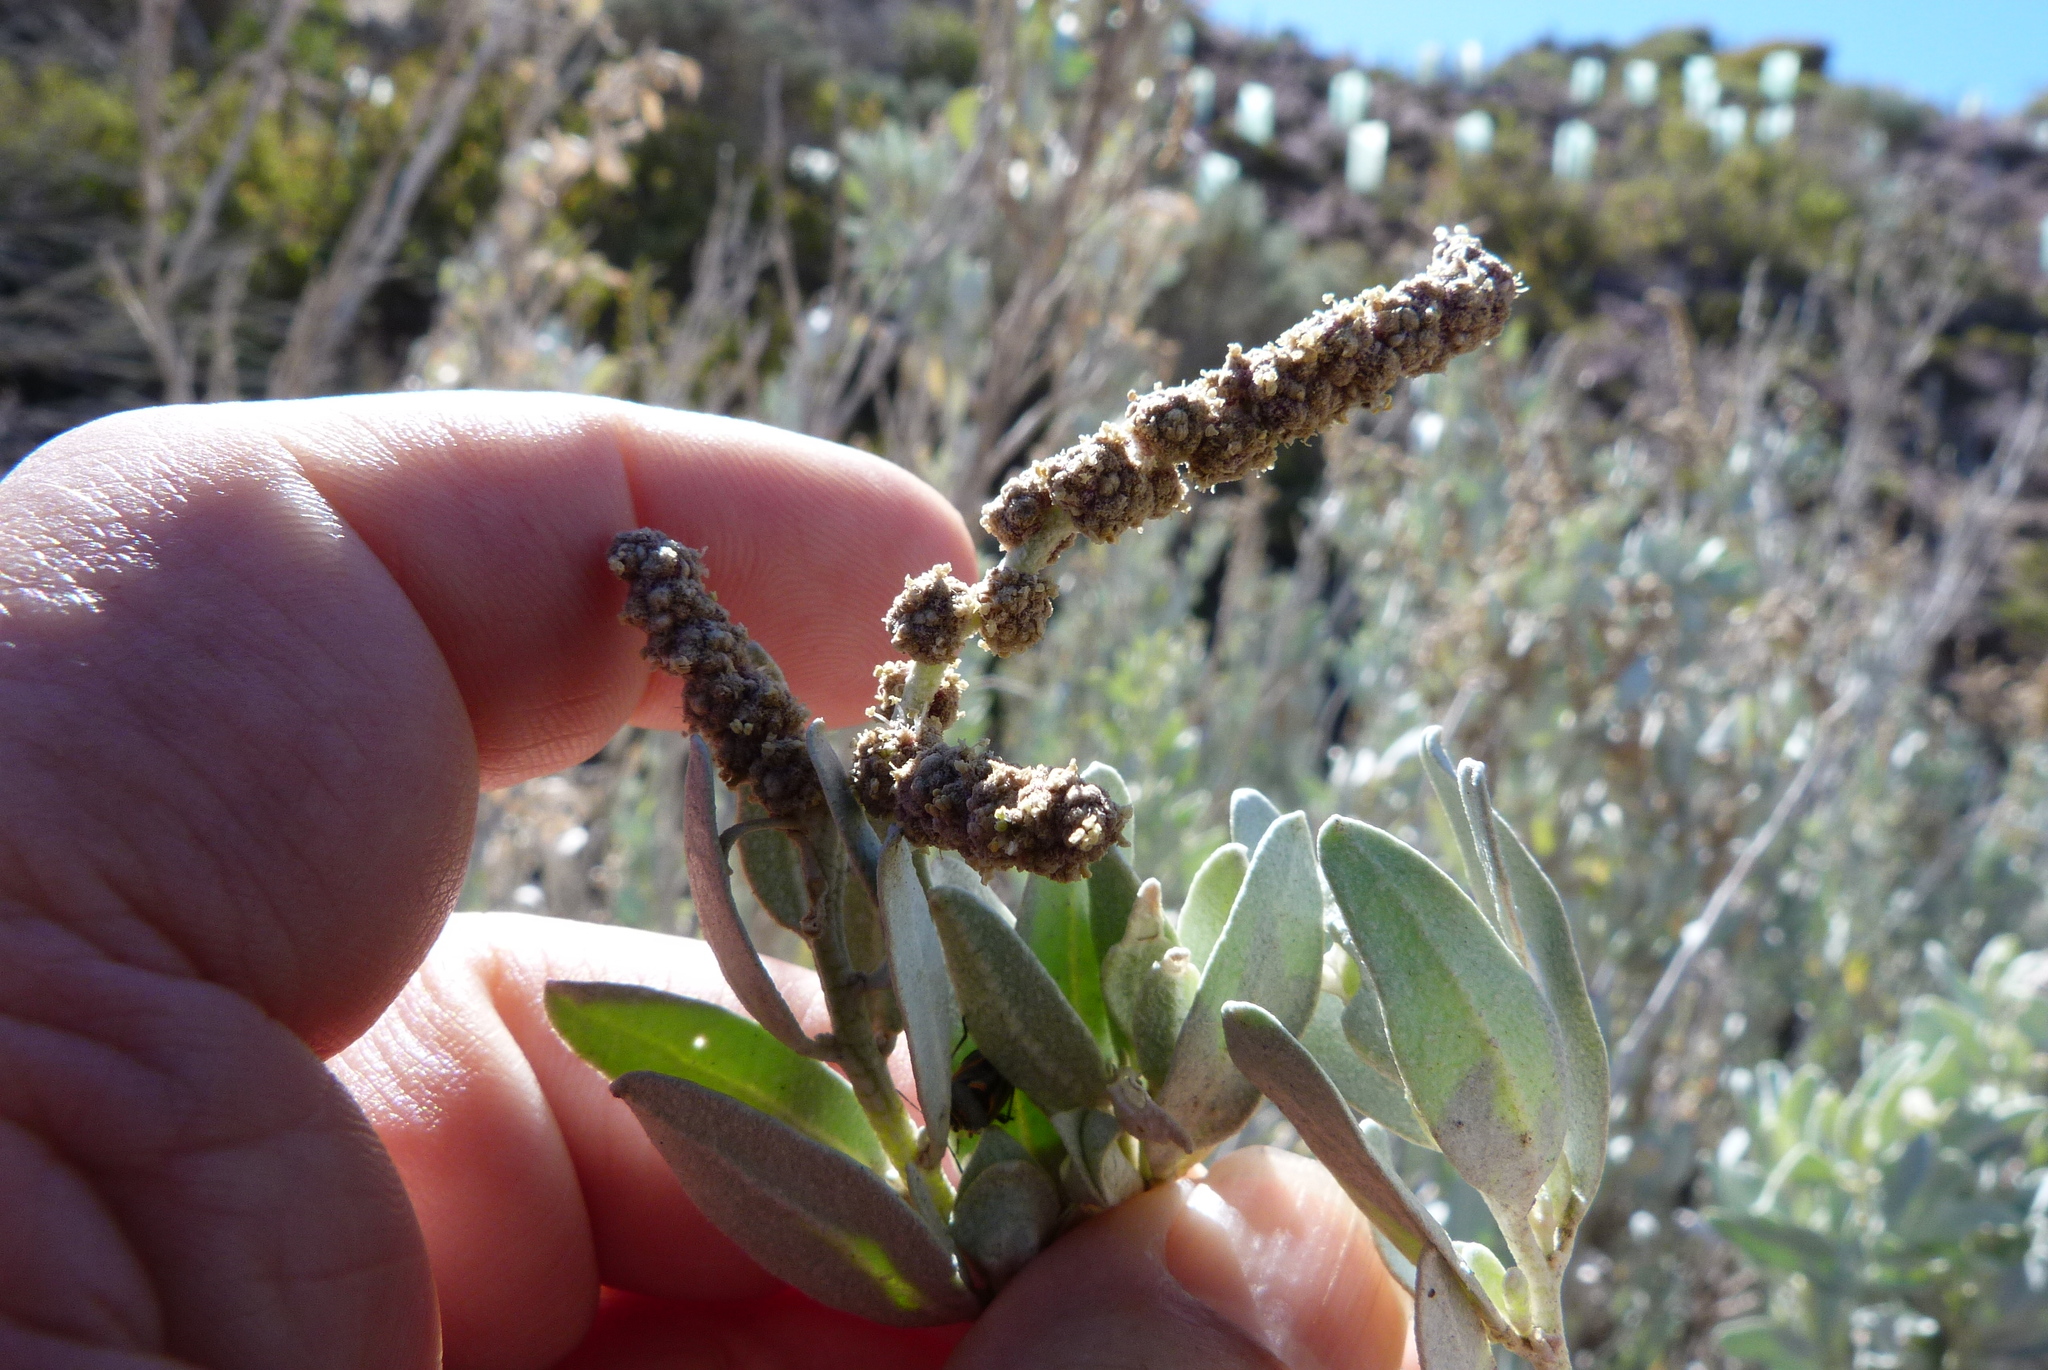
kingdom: Plantae
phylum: Tracheophyta
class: Magnoliopsida
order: Caryophyllales
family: Amaranthaceae
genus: Atriplex
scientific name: Atriplex cinerea
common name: Grey saltbush
